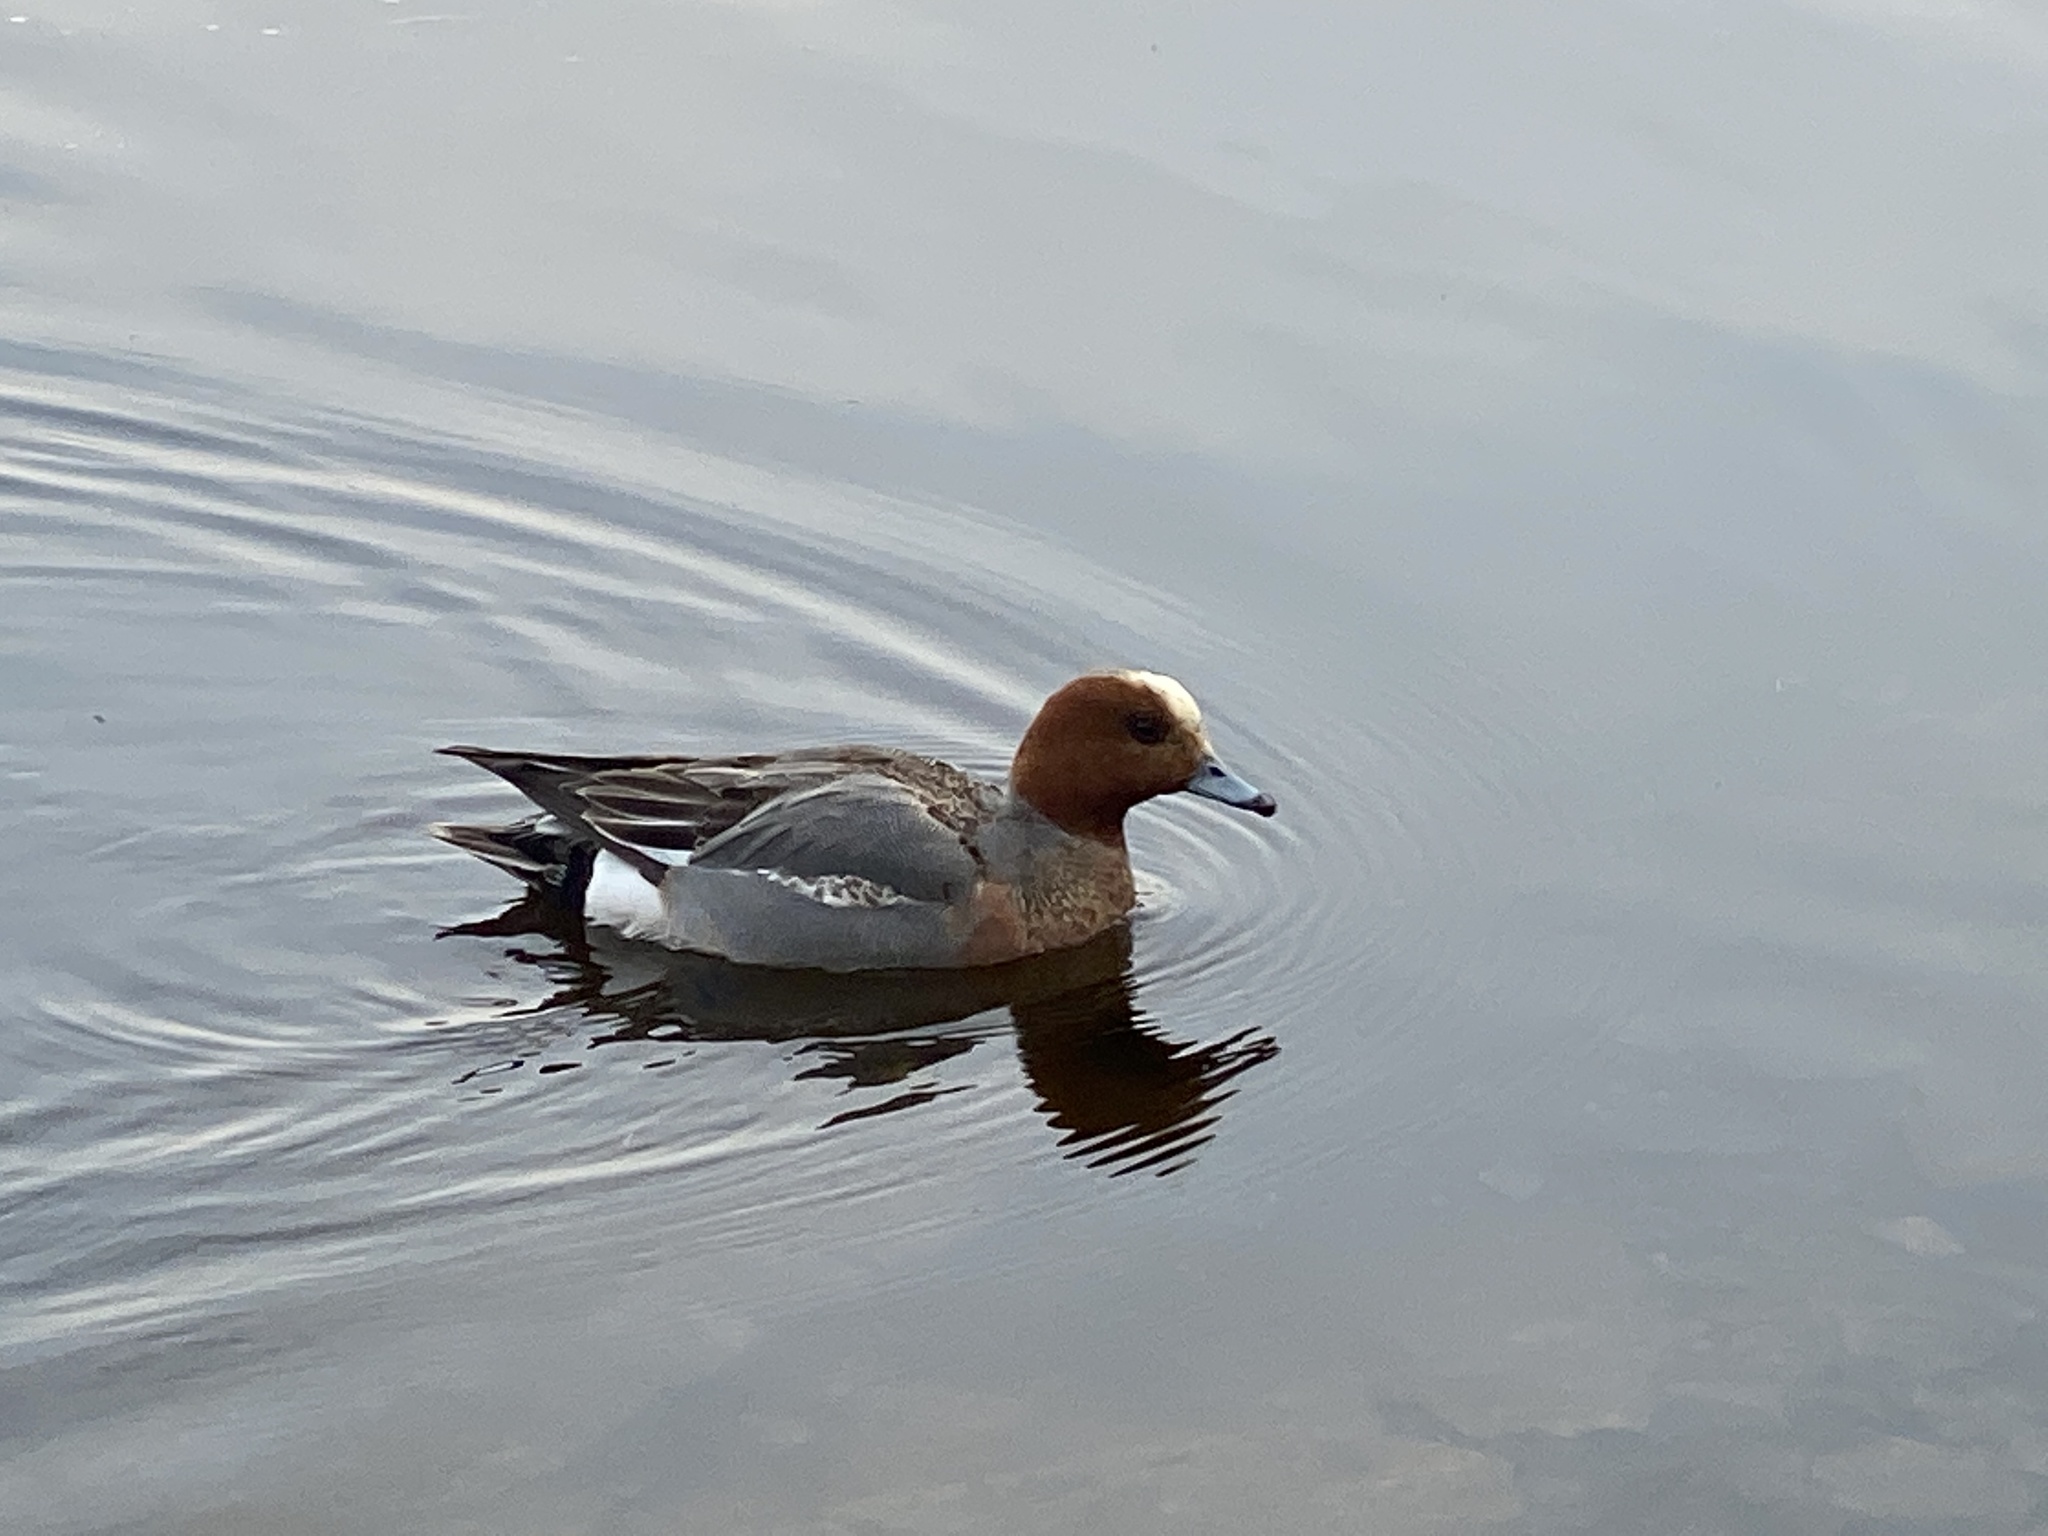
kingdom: Animalia
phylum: Chordata
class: Aves
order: Anseriformes
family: Anatidae
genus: Mareca
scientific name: Mareca penelope
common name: Eurasian wigeon
